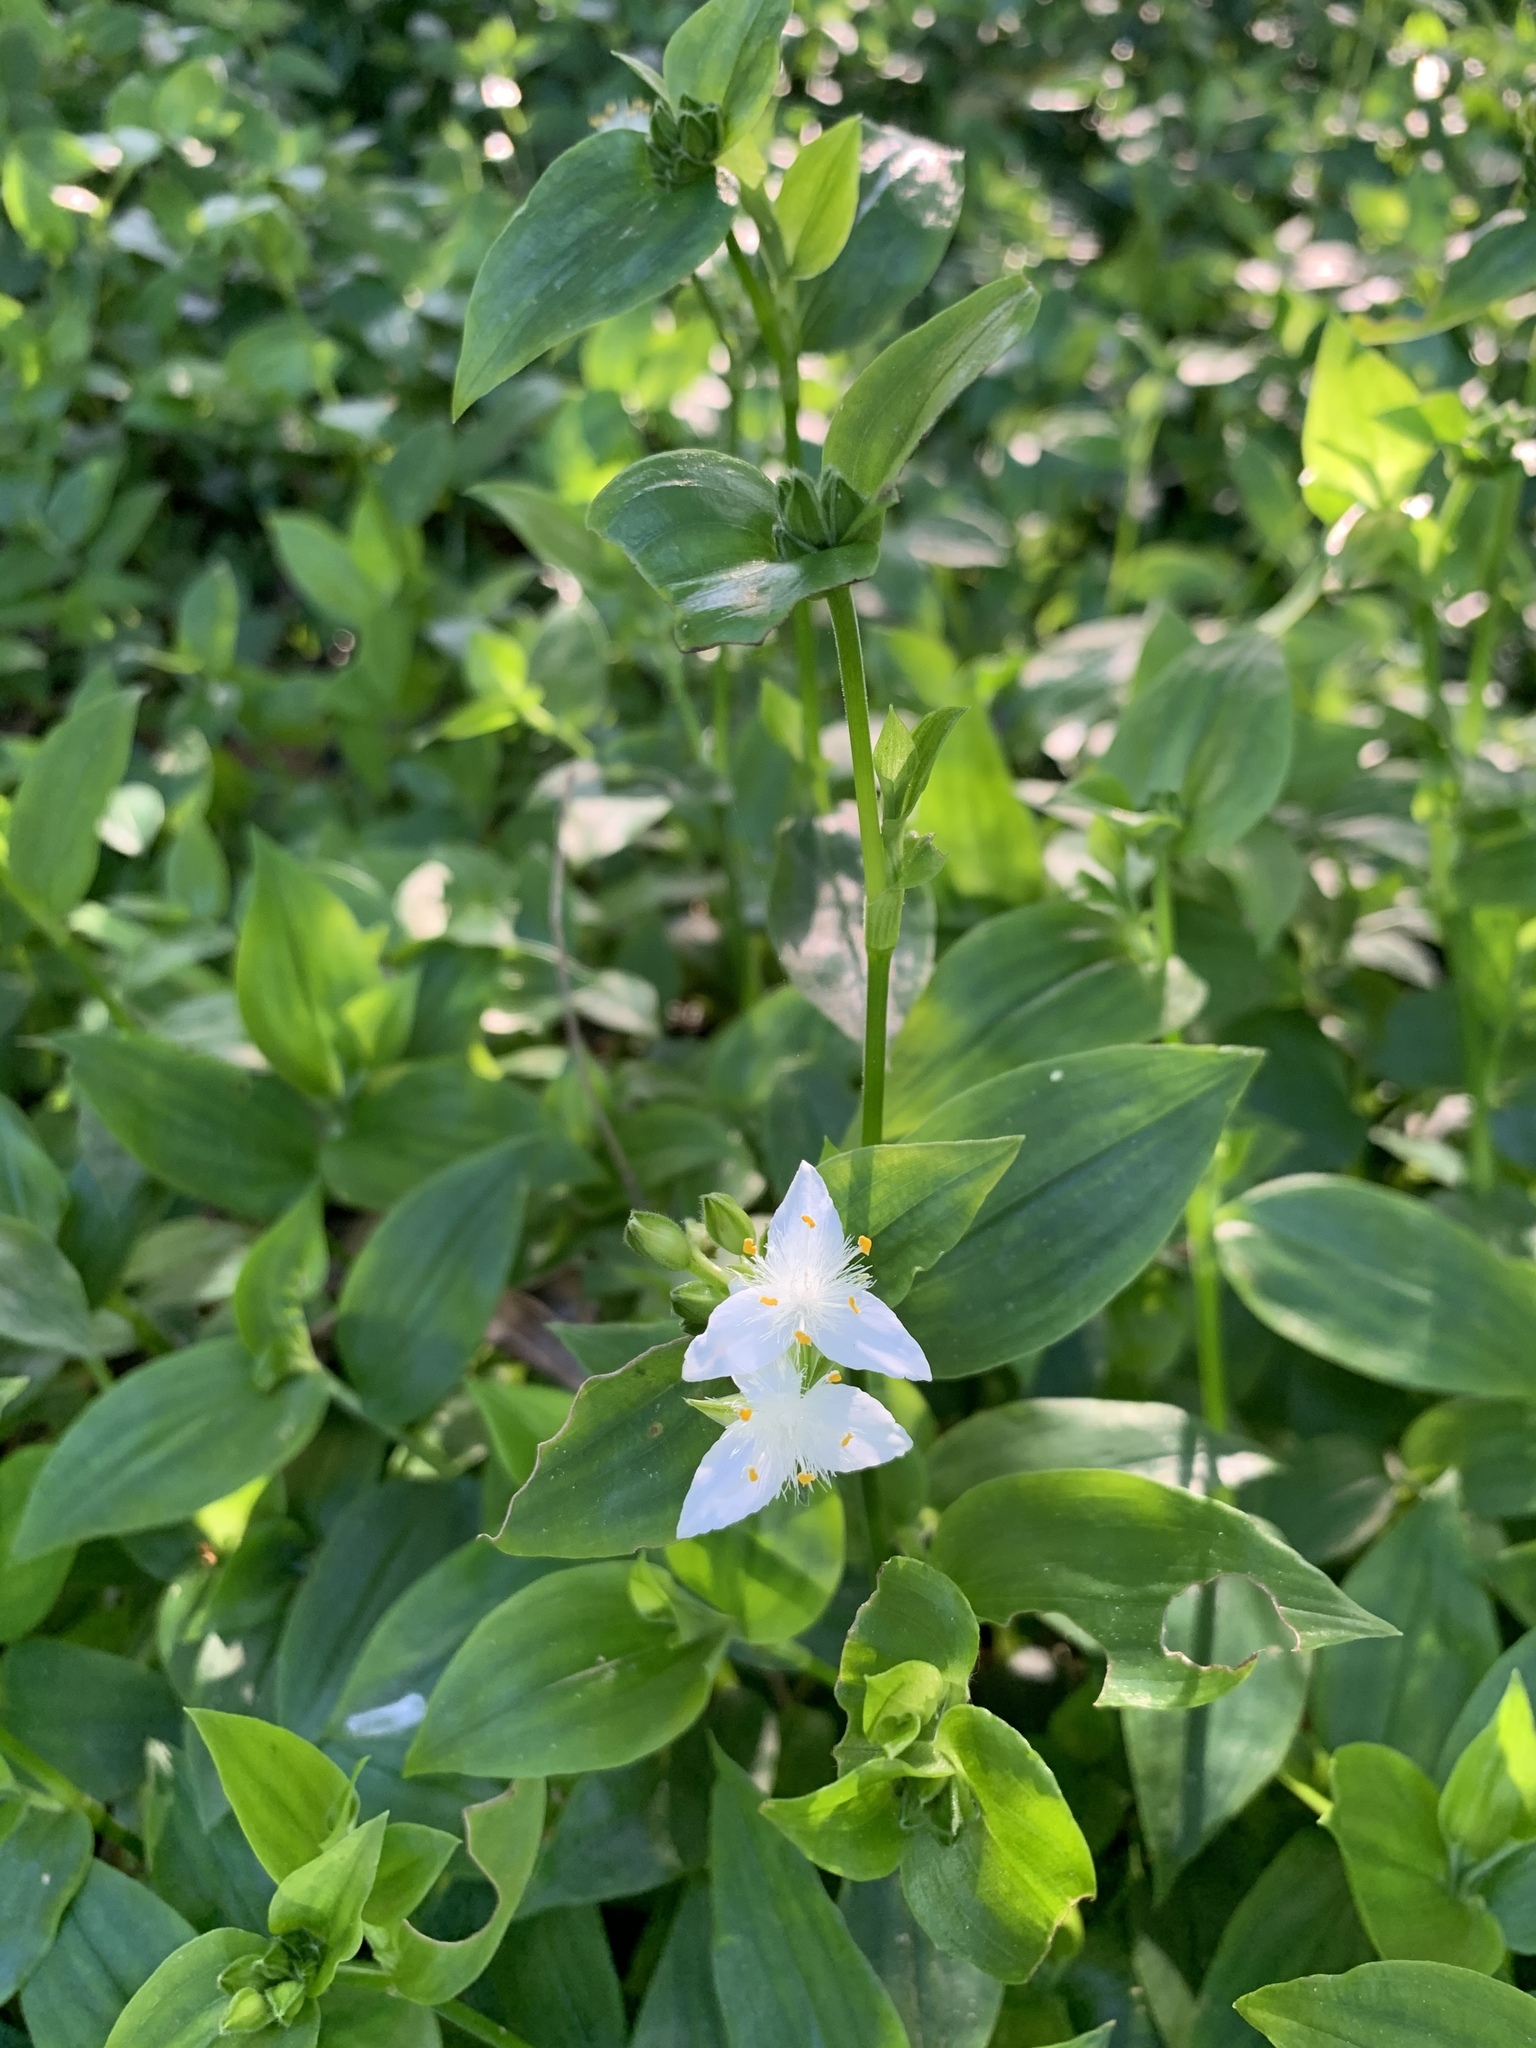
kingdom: Plantae
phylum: Tracheophyta
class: Liliopsida
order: Commelinales
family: Commelinaceae
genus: Tradescantia
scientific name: Tradescantia fluminensis
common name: Wandering-jew
